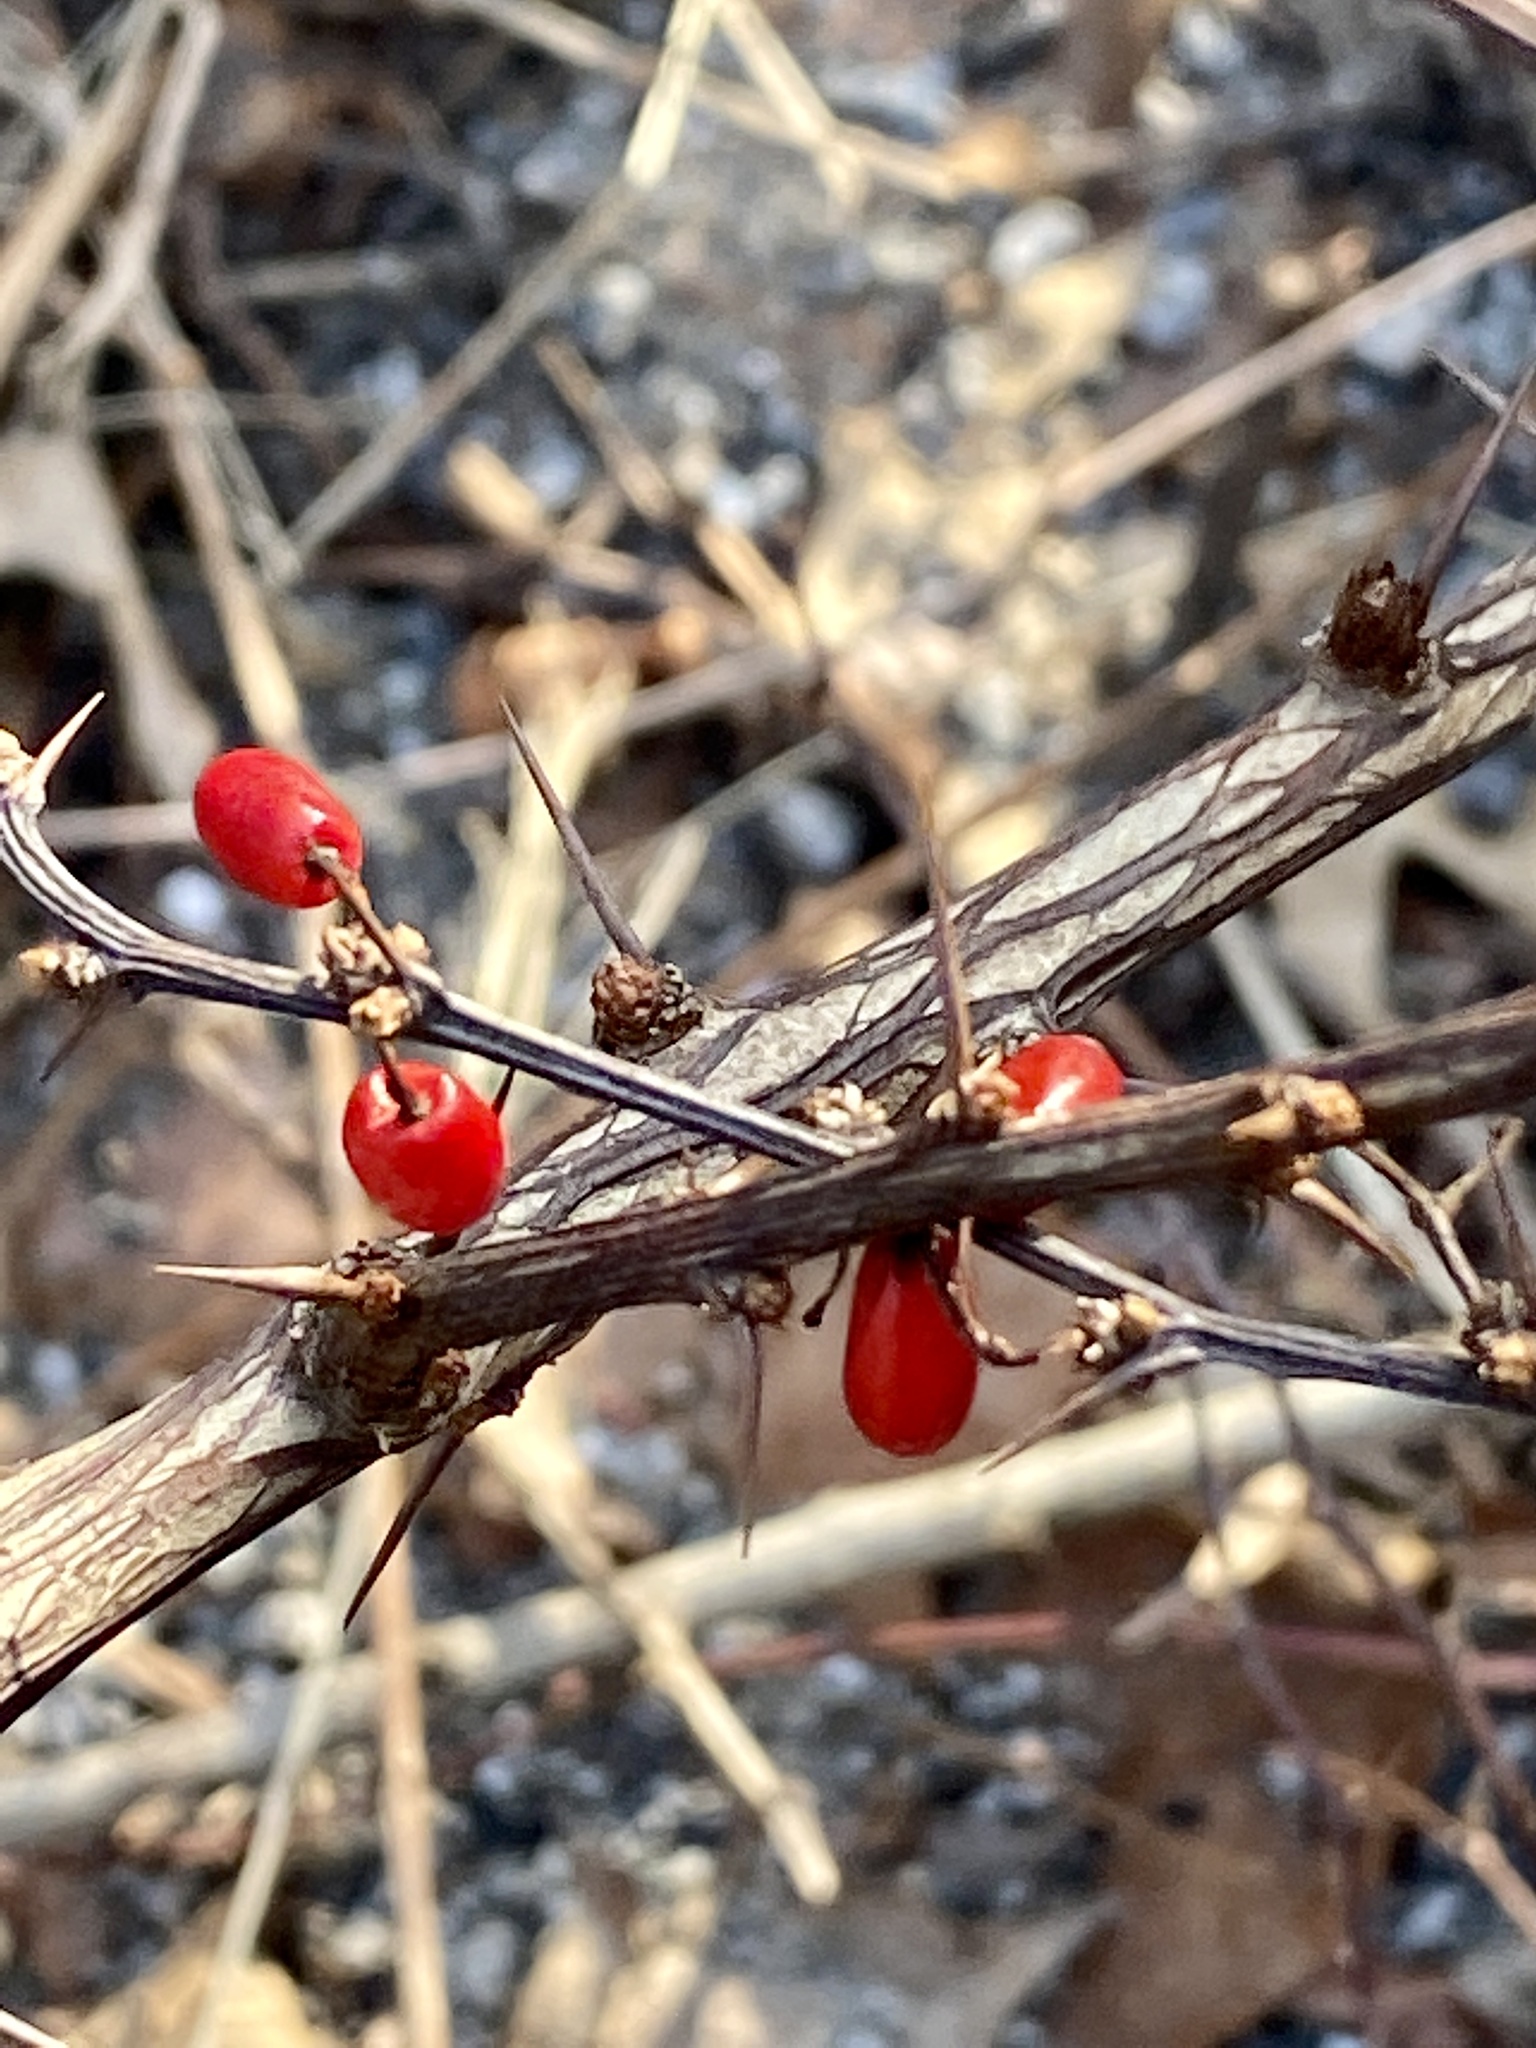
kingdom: Plantae
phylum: Tracheophyta
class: Magnoliopsida
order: Ranunculales
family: Berberidaceae
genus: Berberis
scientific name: Berberis thunbergii
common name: Japanese barberry
